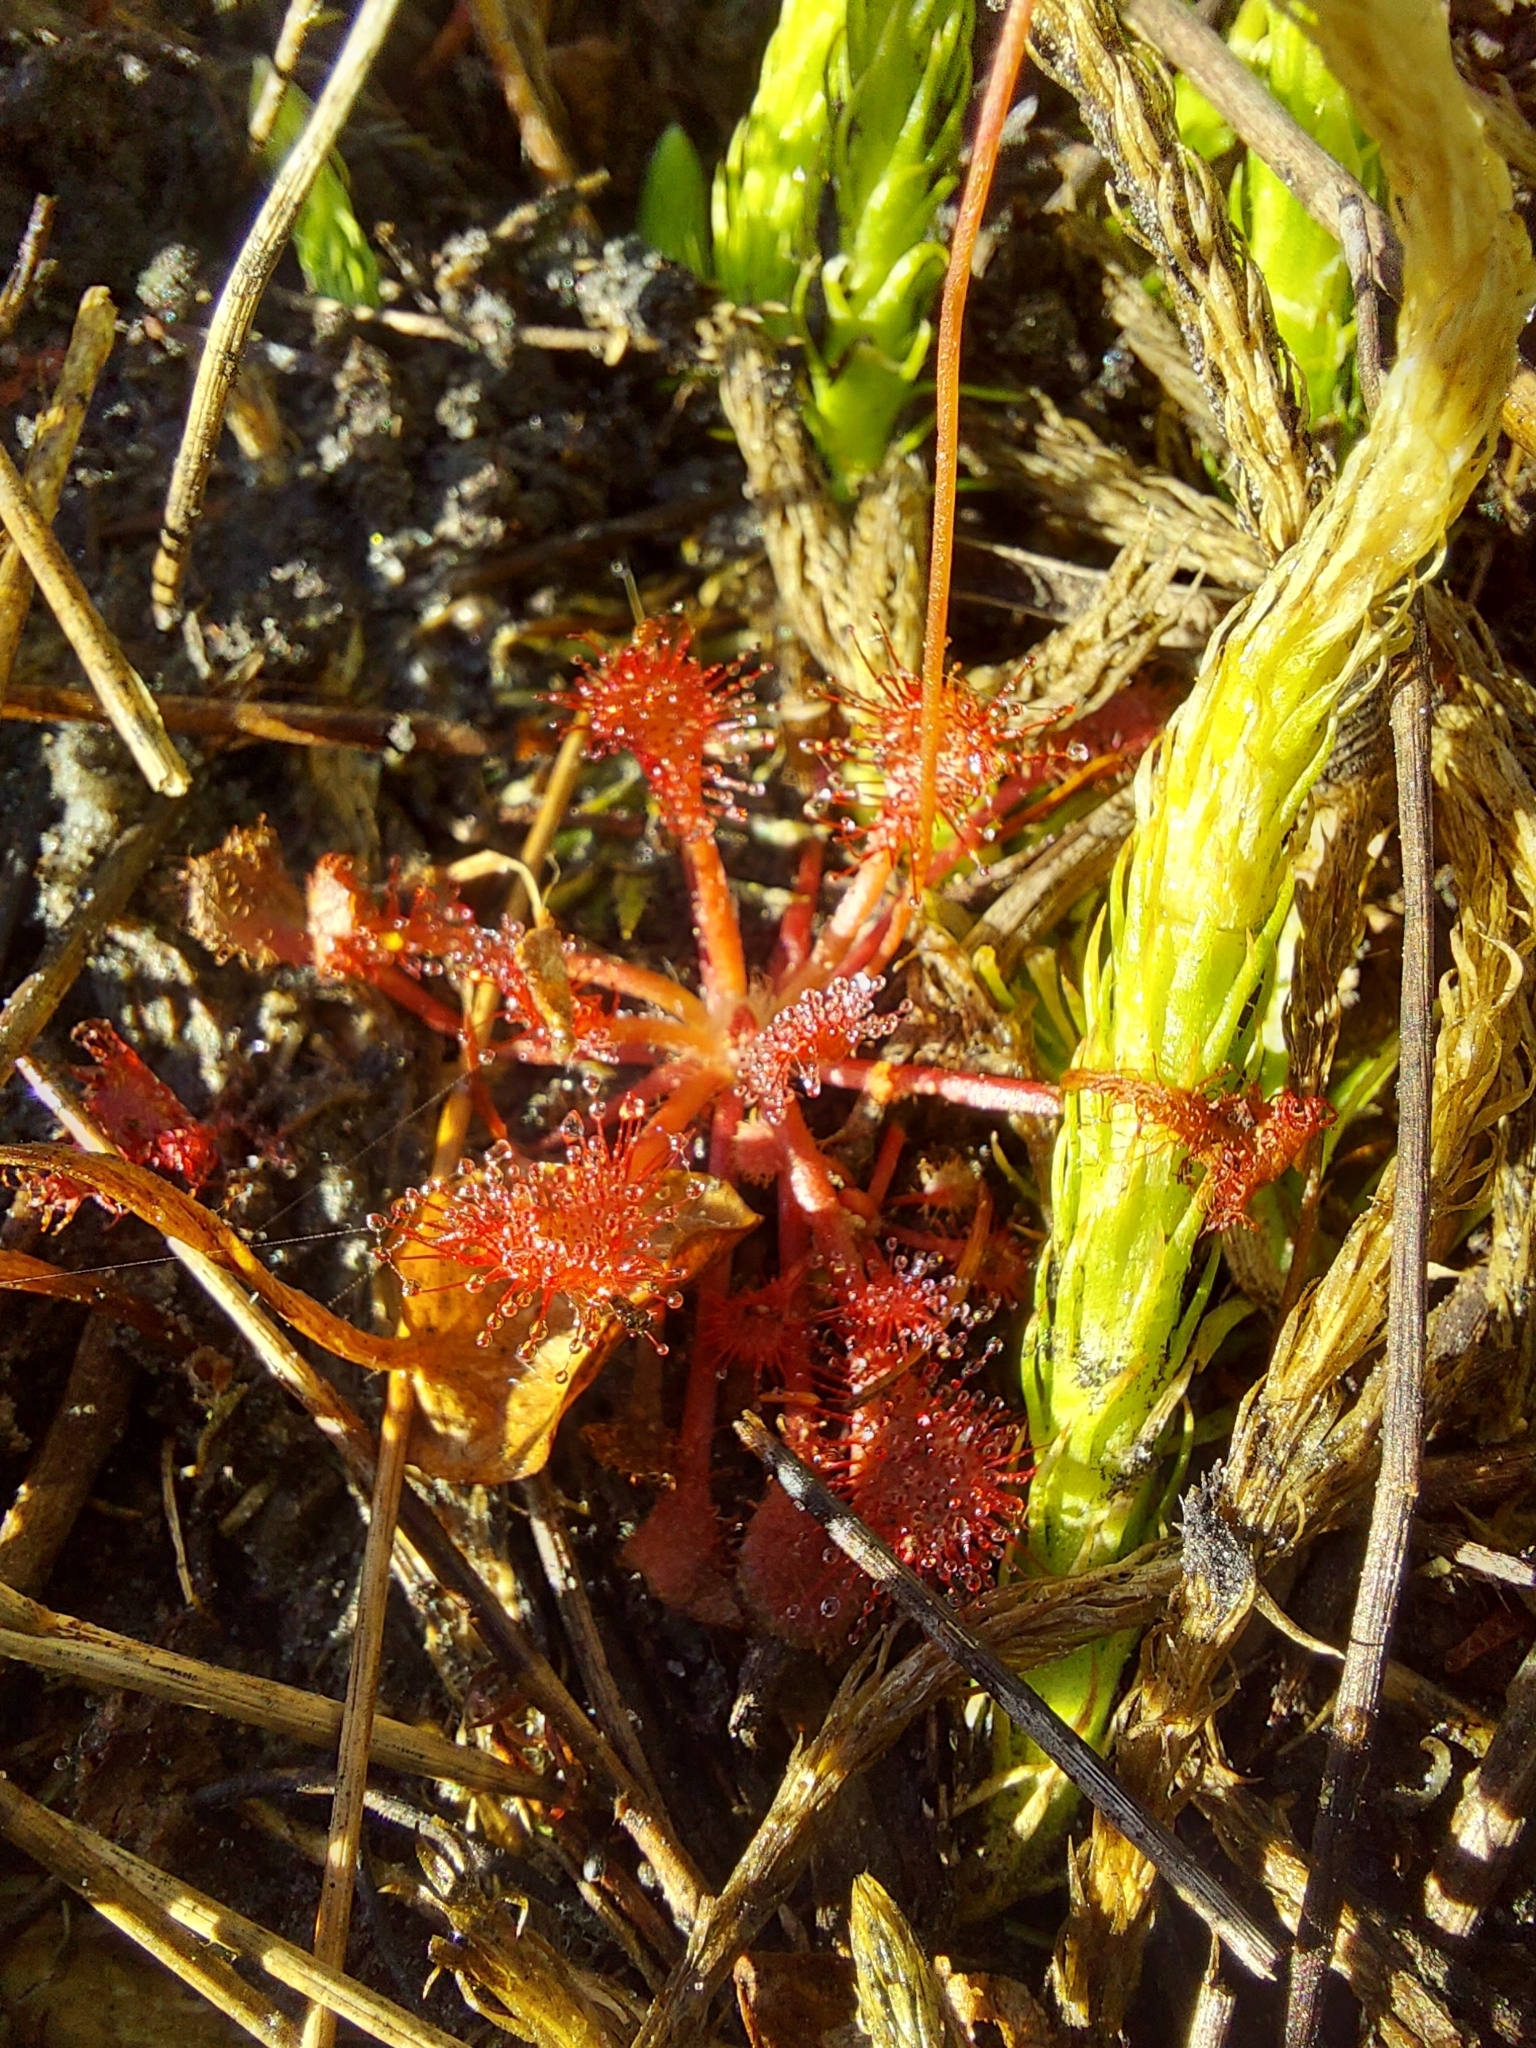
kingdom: Plantae
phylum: Tracheophyta
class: Magnoliopsida
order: Caryophyllales
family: Droseraceae
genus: Drosera
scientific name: Drosera capillaris
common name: Pink sundew
